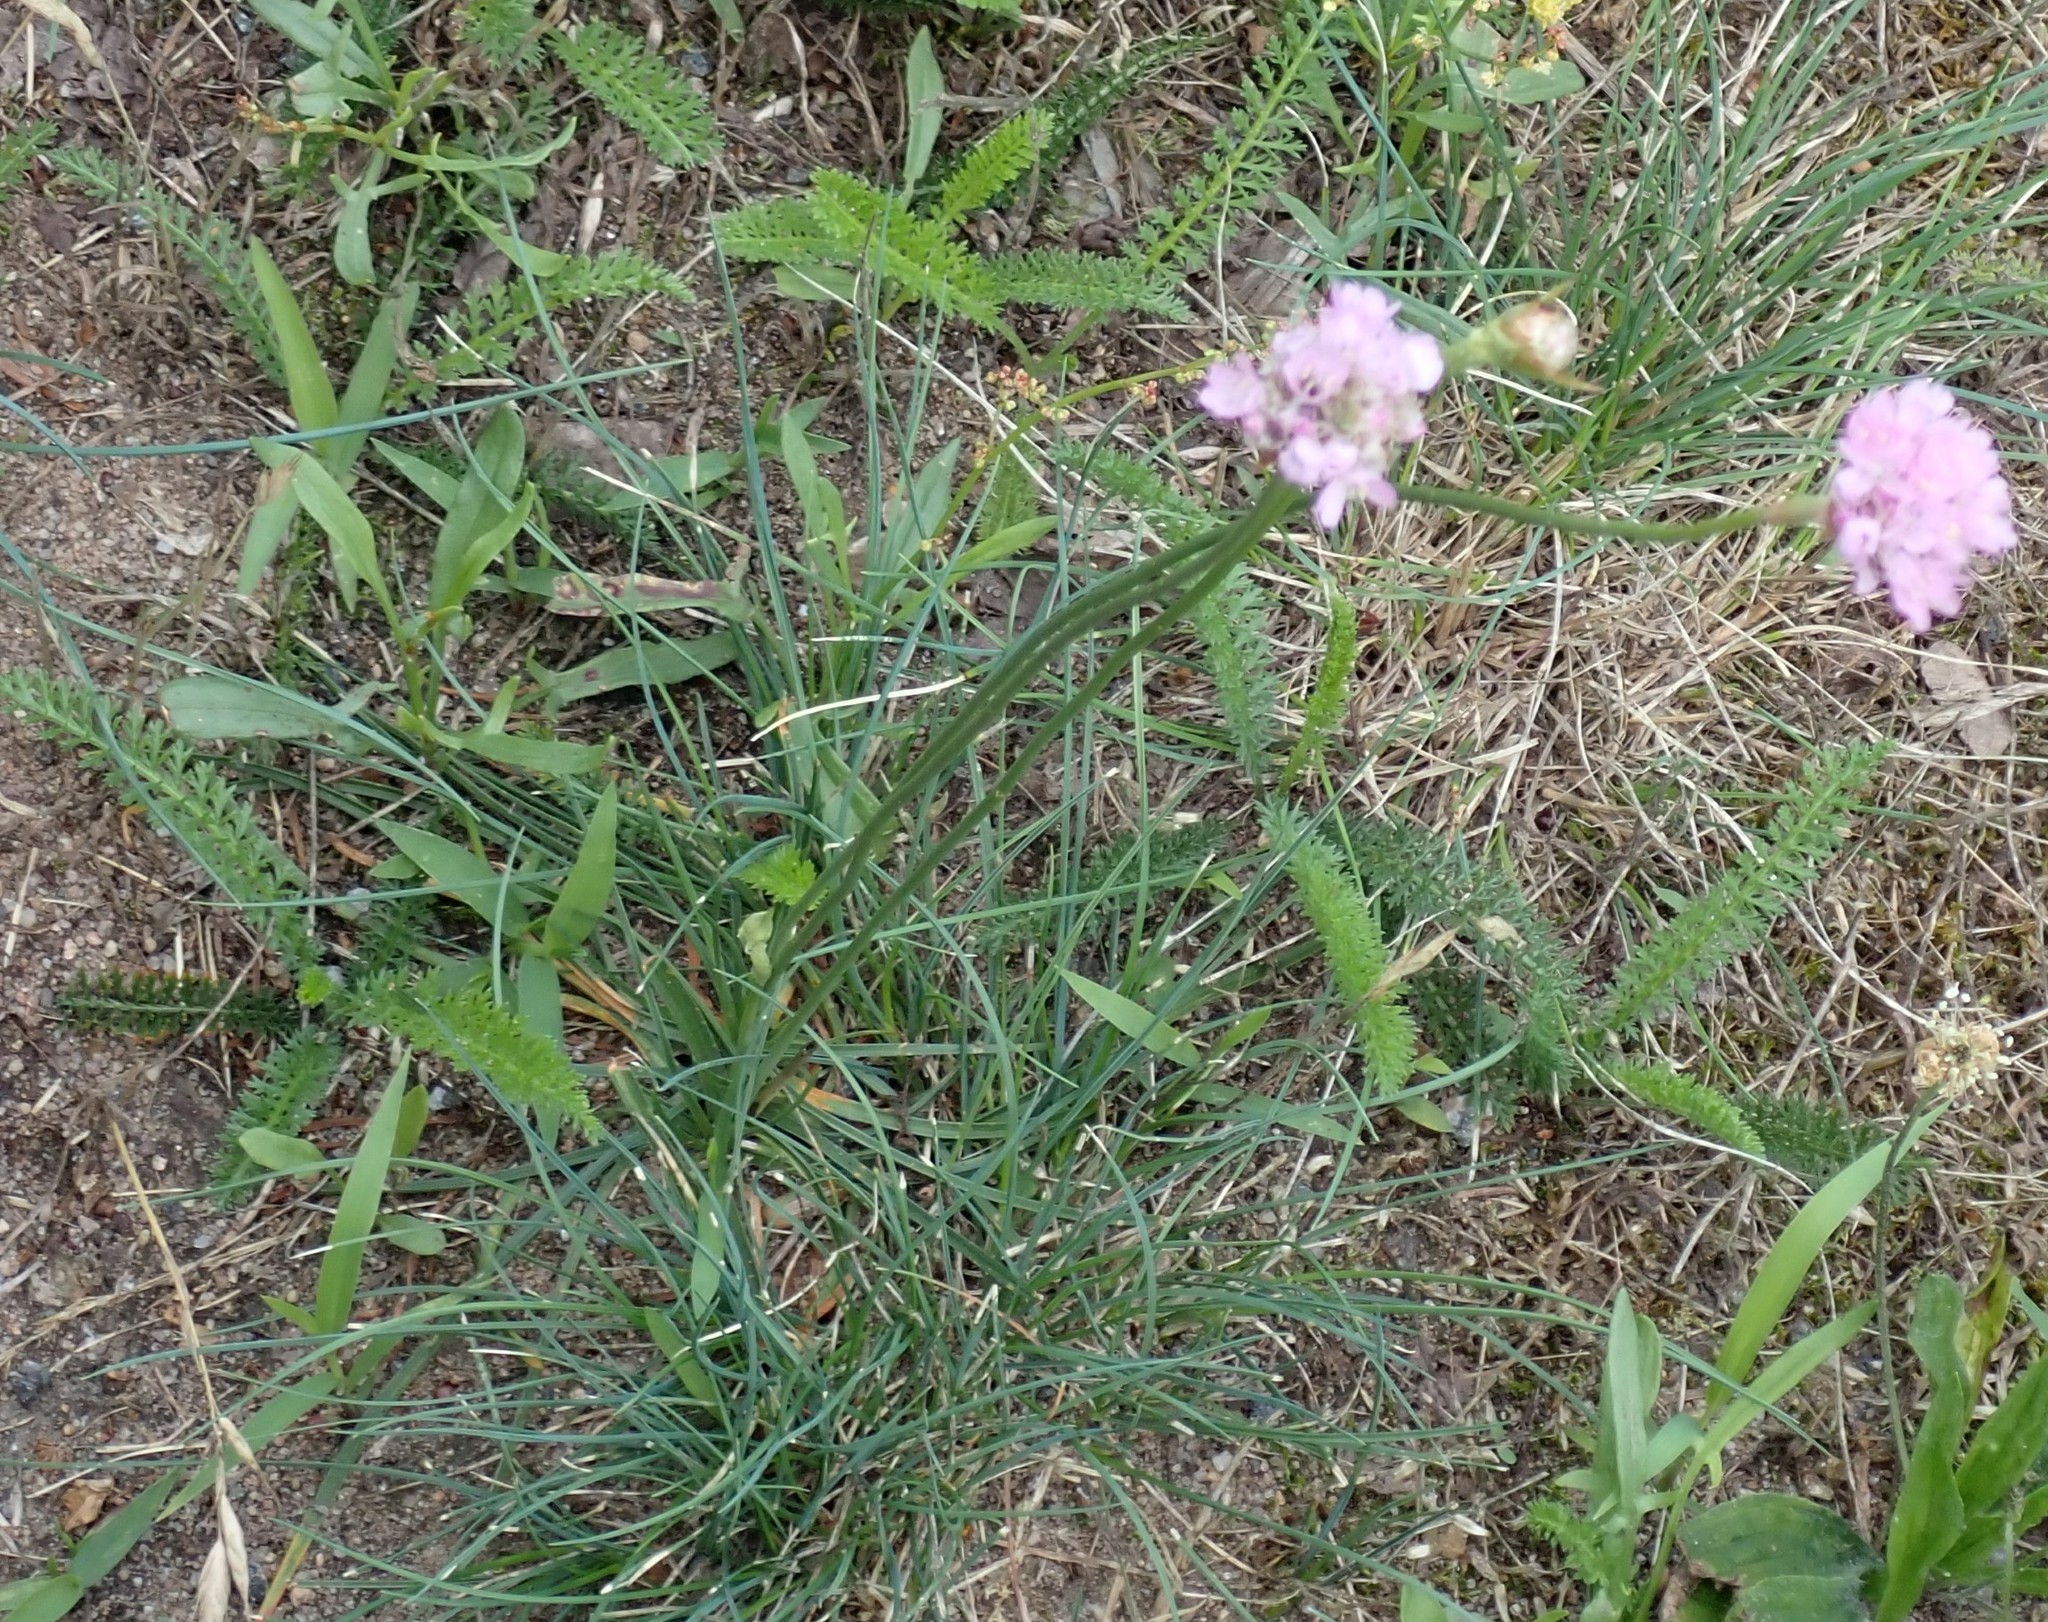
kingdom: Plantae
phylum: Tracheophyta
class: Magnoliopsida
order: Caryophyllales
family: Plumbaginaceae
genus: Armeria
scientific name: Armeria maritima
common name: Thrift
